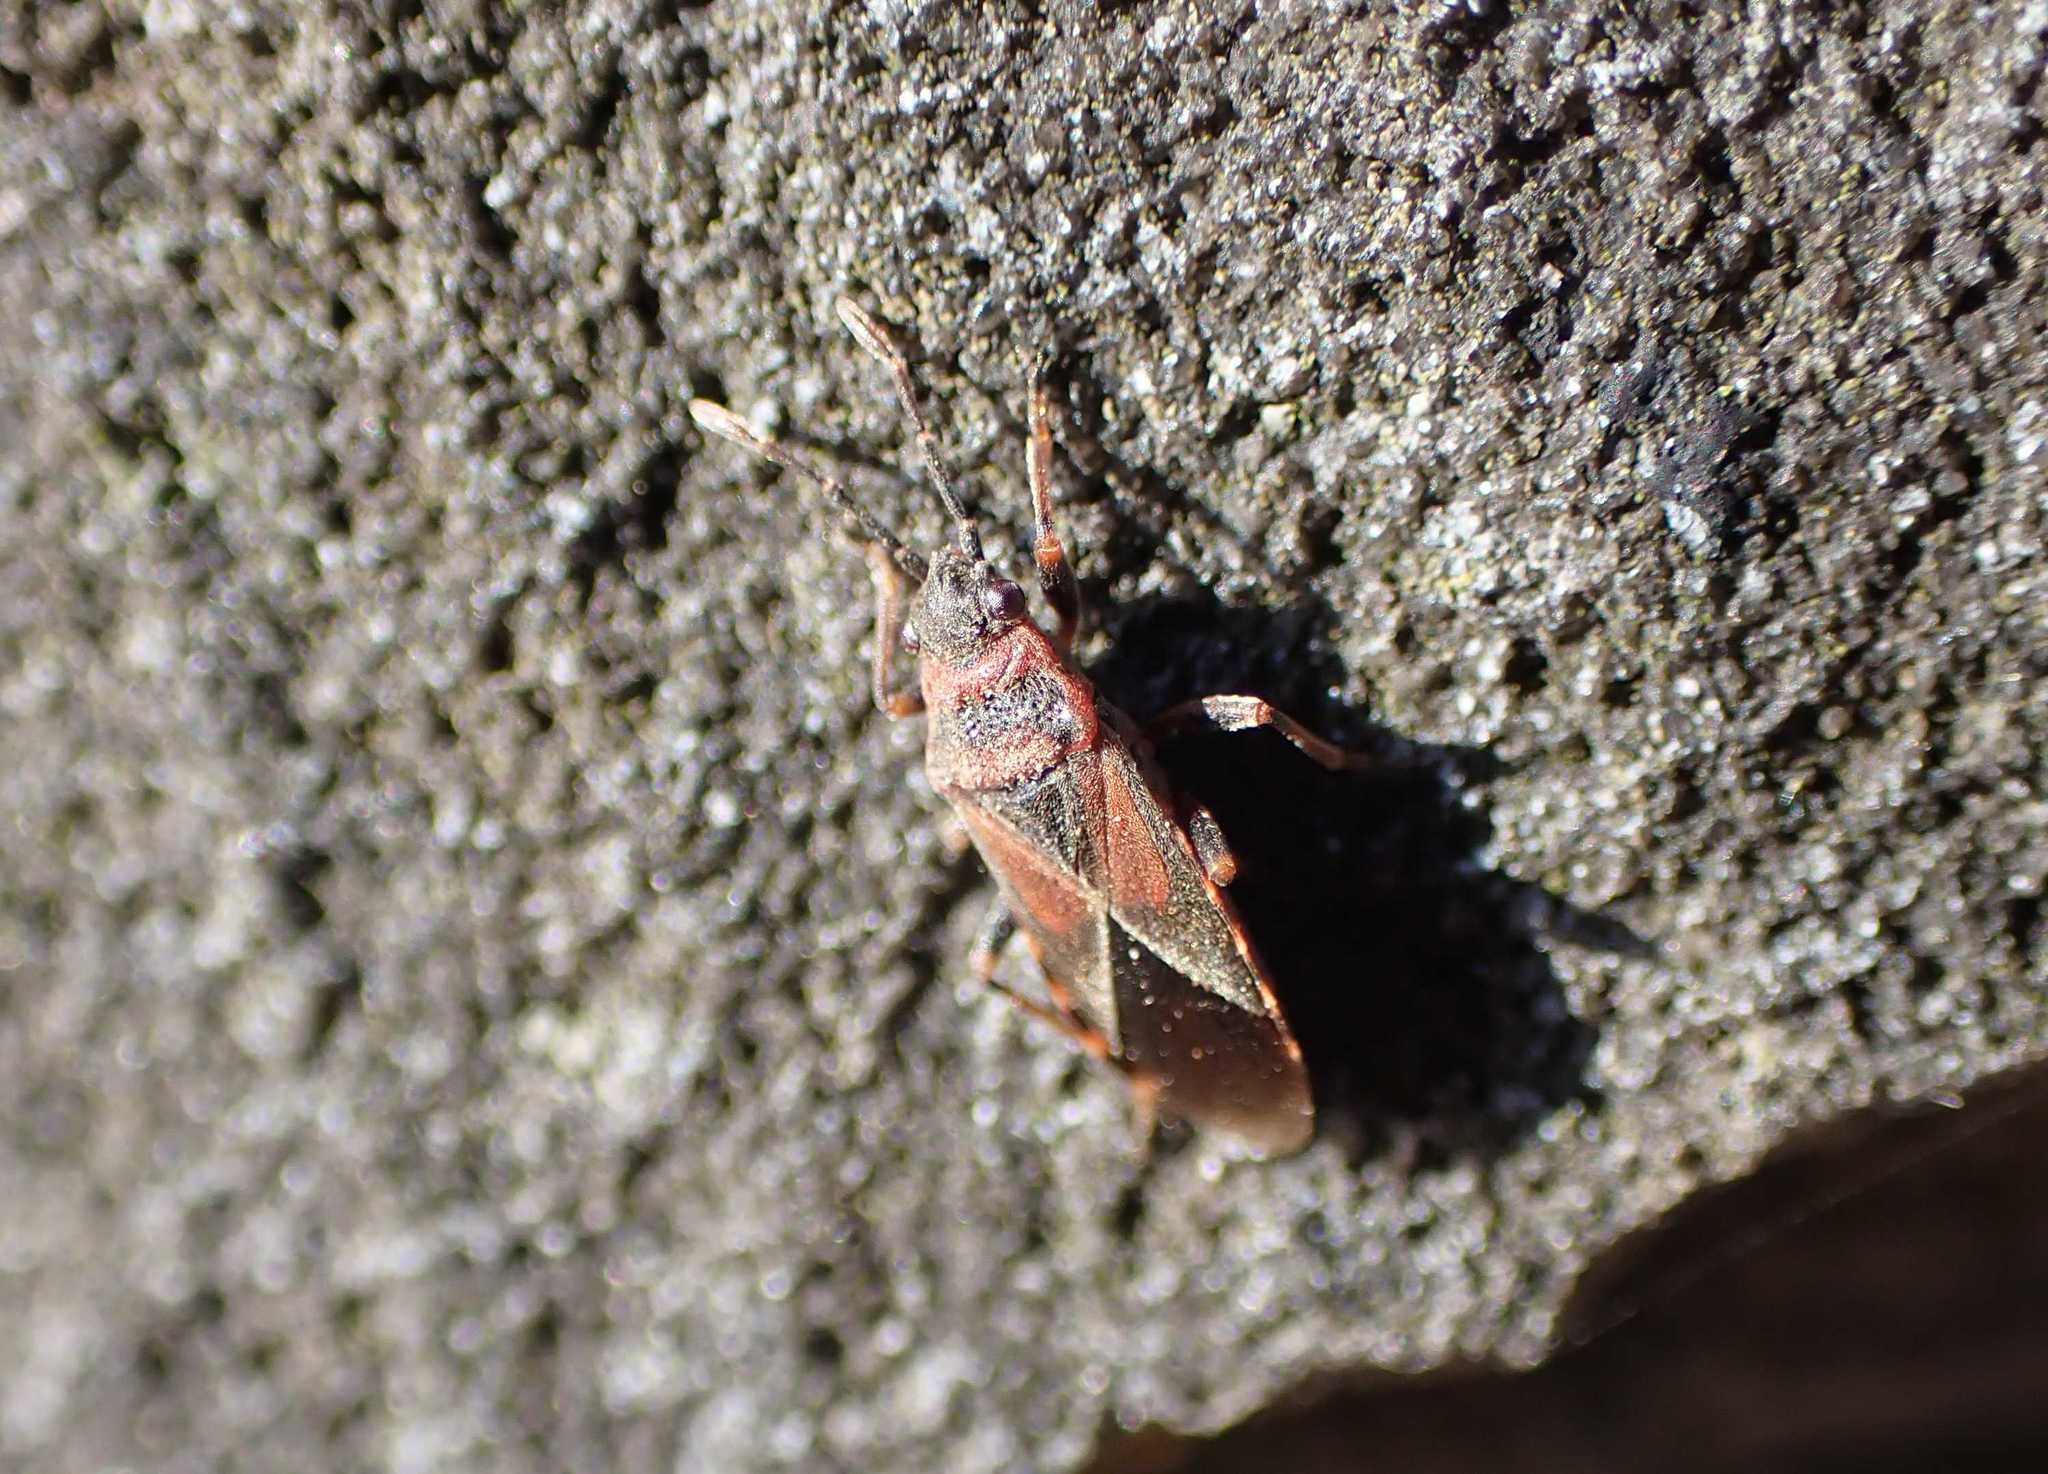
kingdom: Animalia
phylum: Arthropoda
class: Insecta
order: Hemiptera
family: Lygaeidae
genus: Arocatus
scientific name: Arocatus melanocephalus
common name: Lygaeid bug
